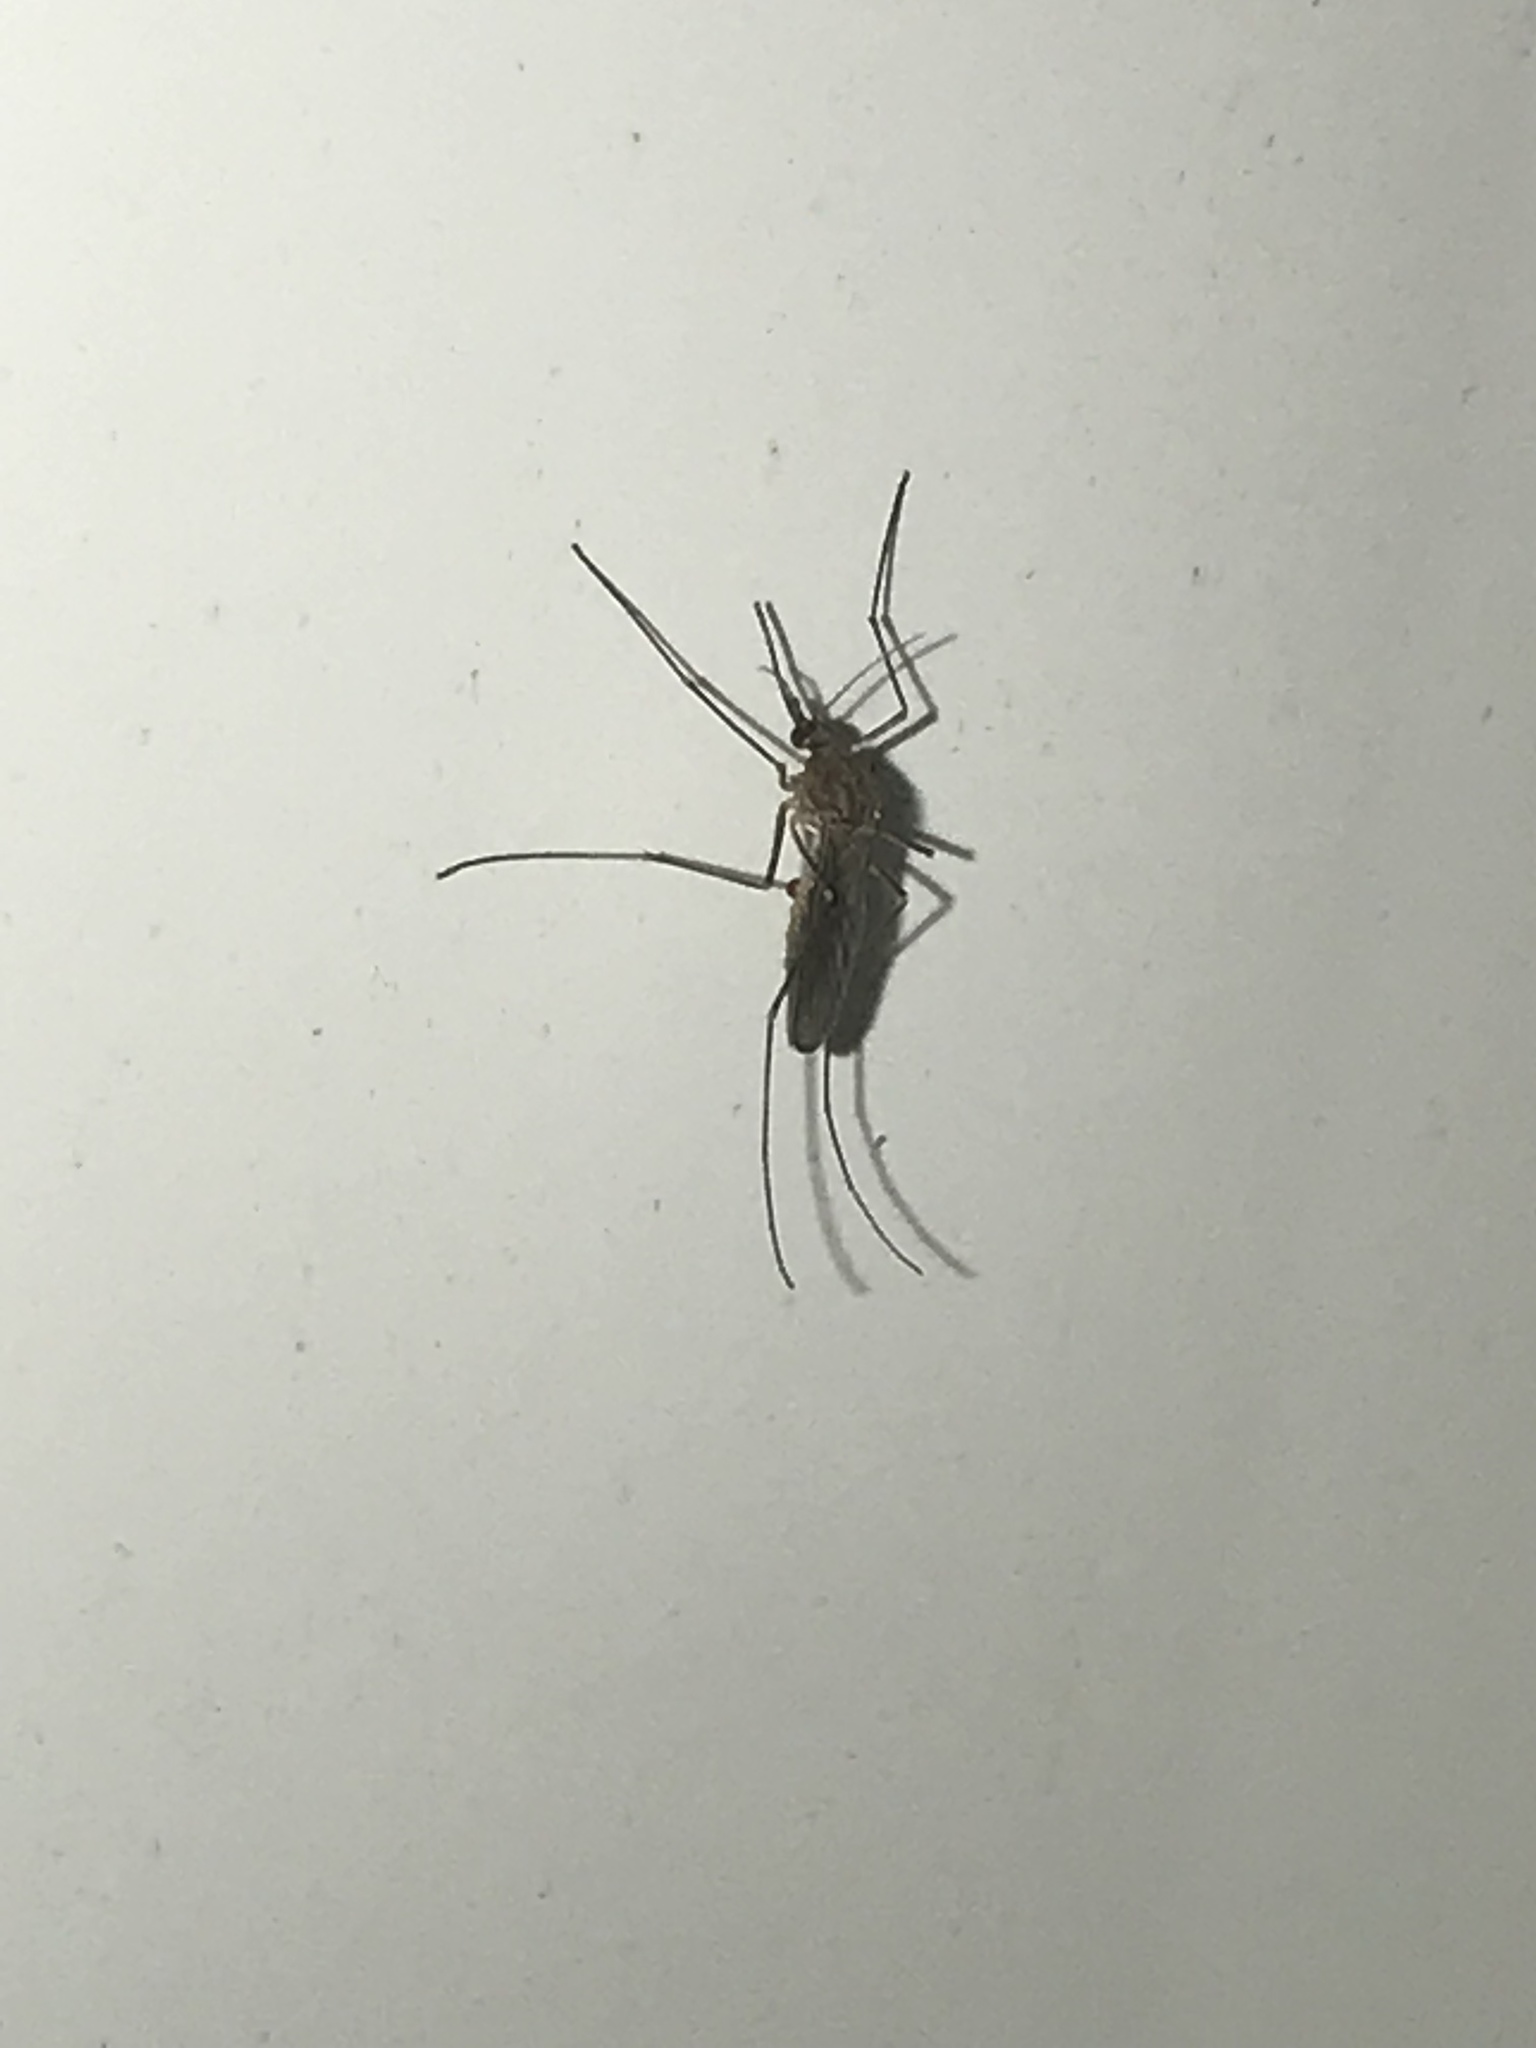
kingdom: Animalia
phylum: Arthropoda
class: Insecta
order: Diptera
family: Culicidae
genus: Culex
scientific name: Culex erraticus
